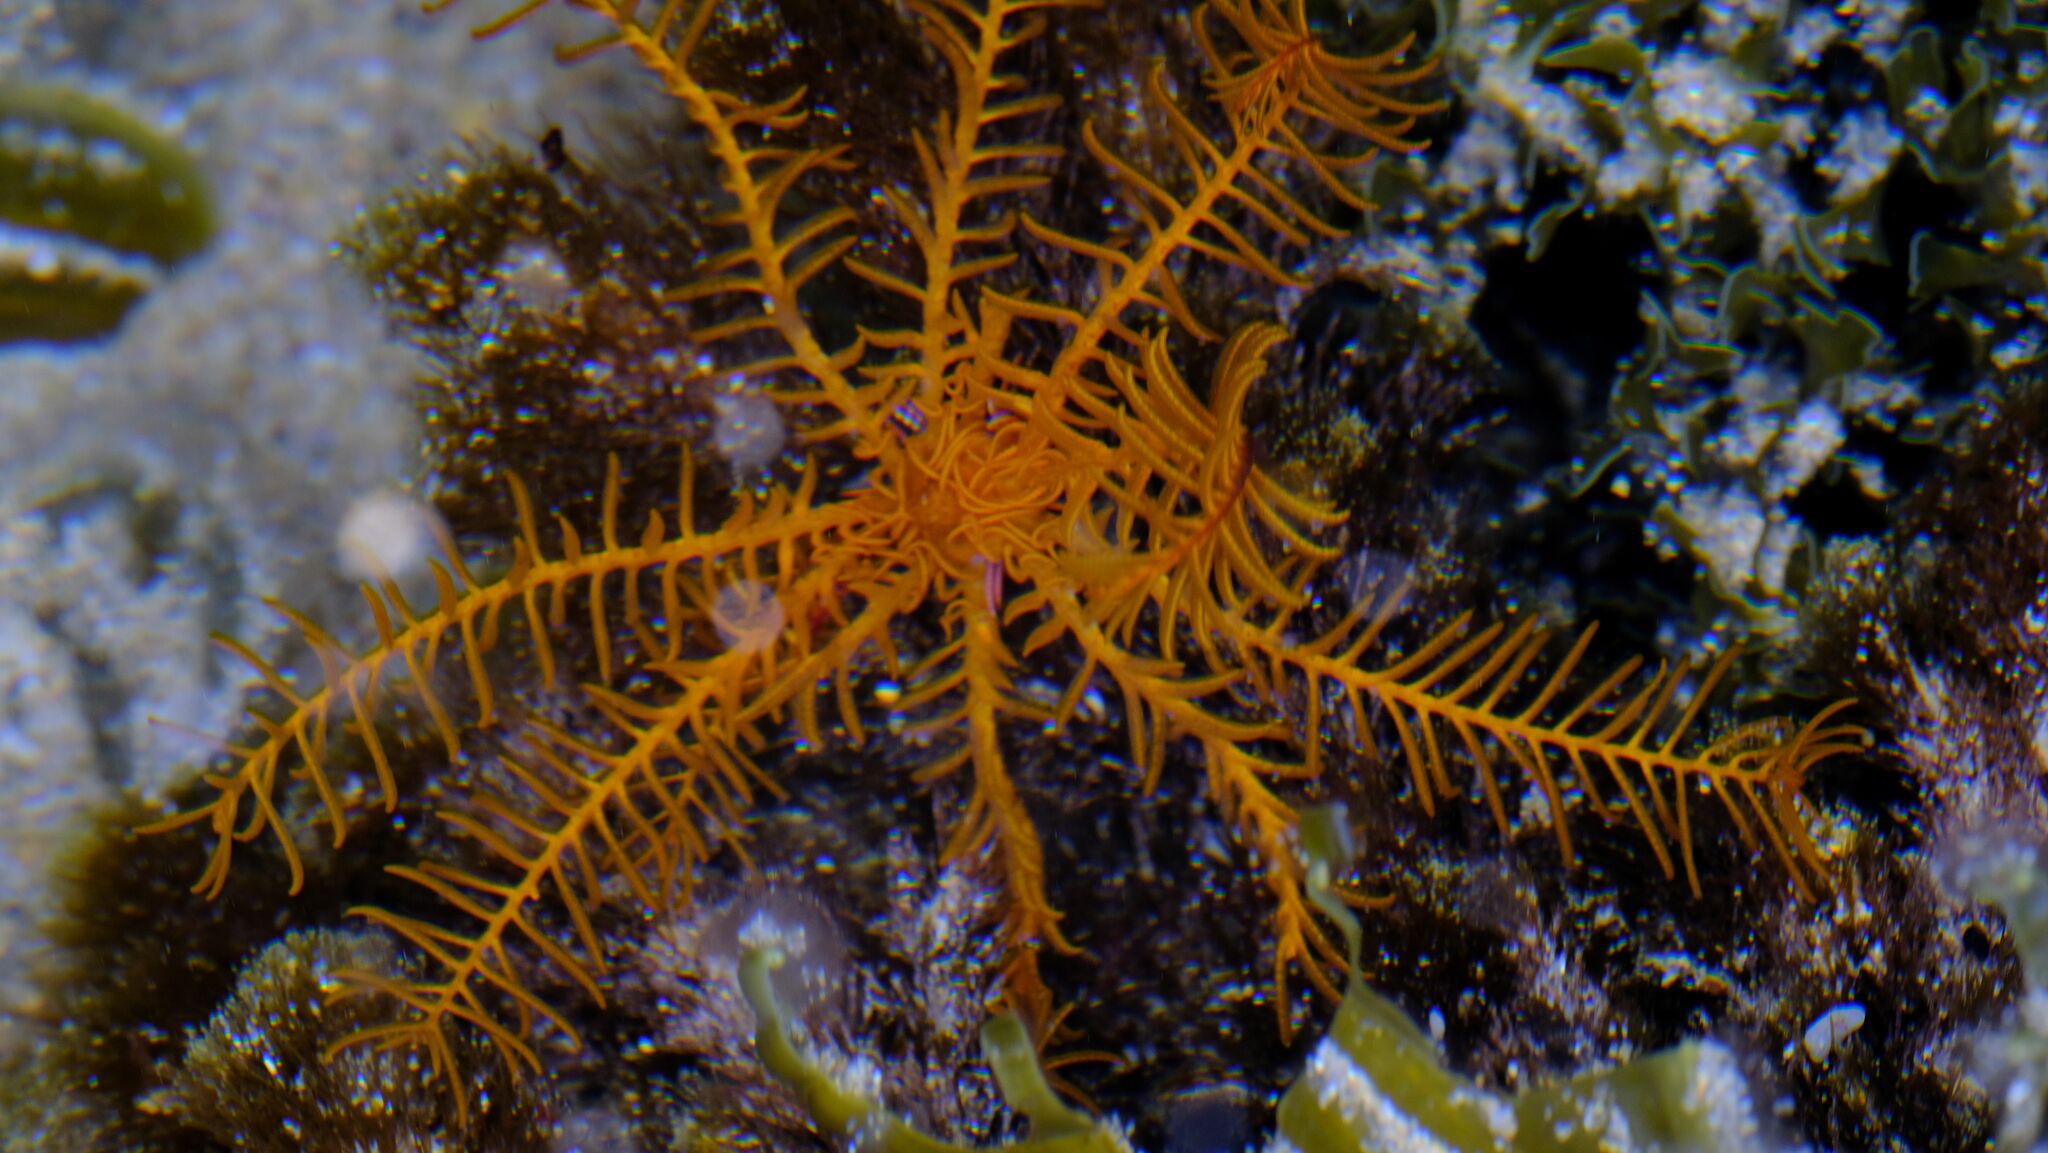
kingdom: Animalia
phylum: Echinodermata
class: Crinoidea
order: Comatulida
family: Comatulidae
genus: Cenolia
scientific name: Cenolia trichoptera
